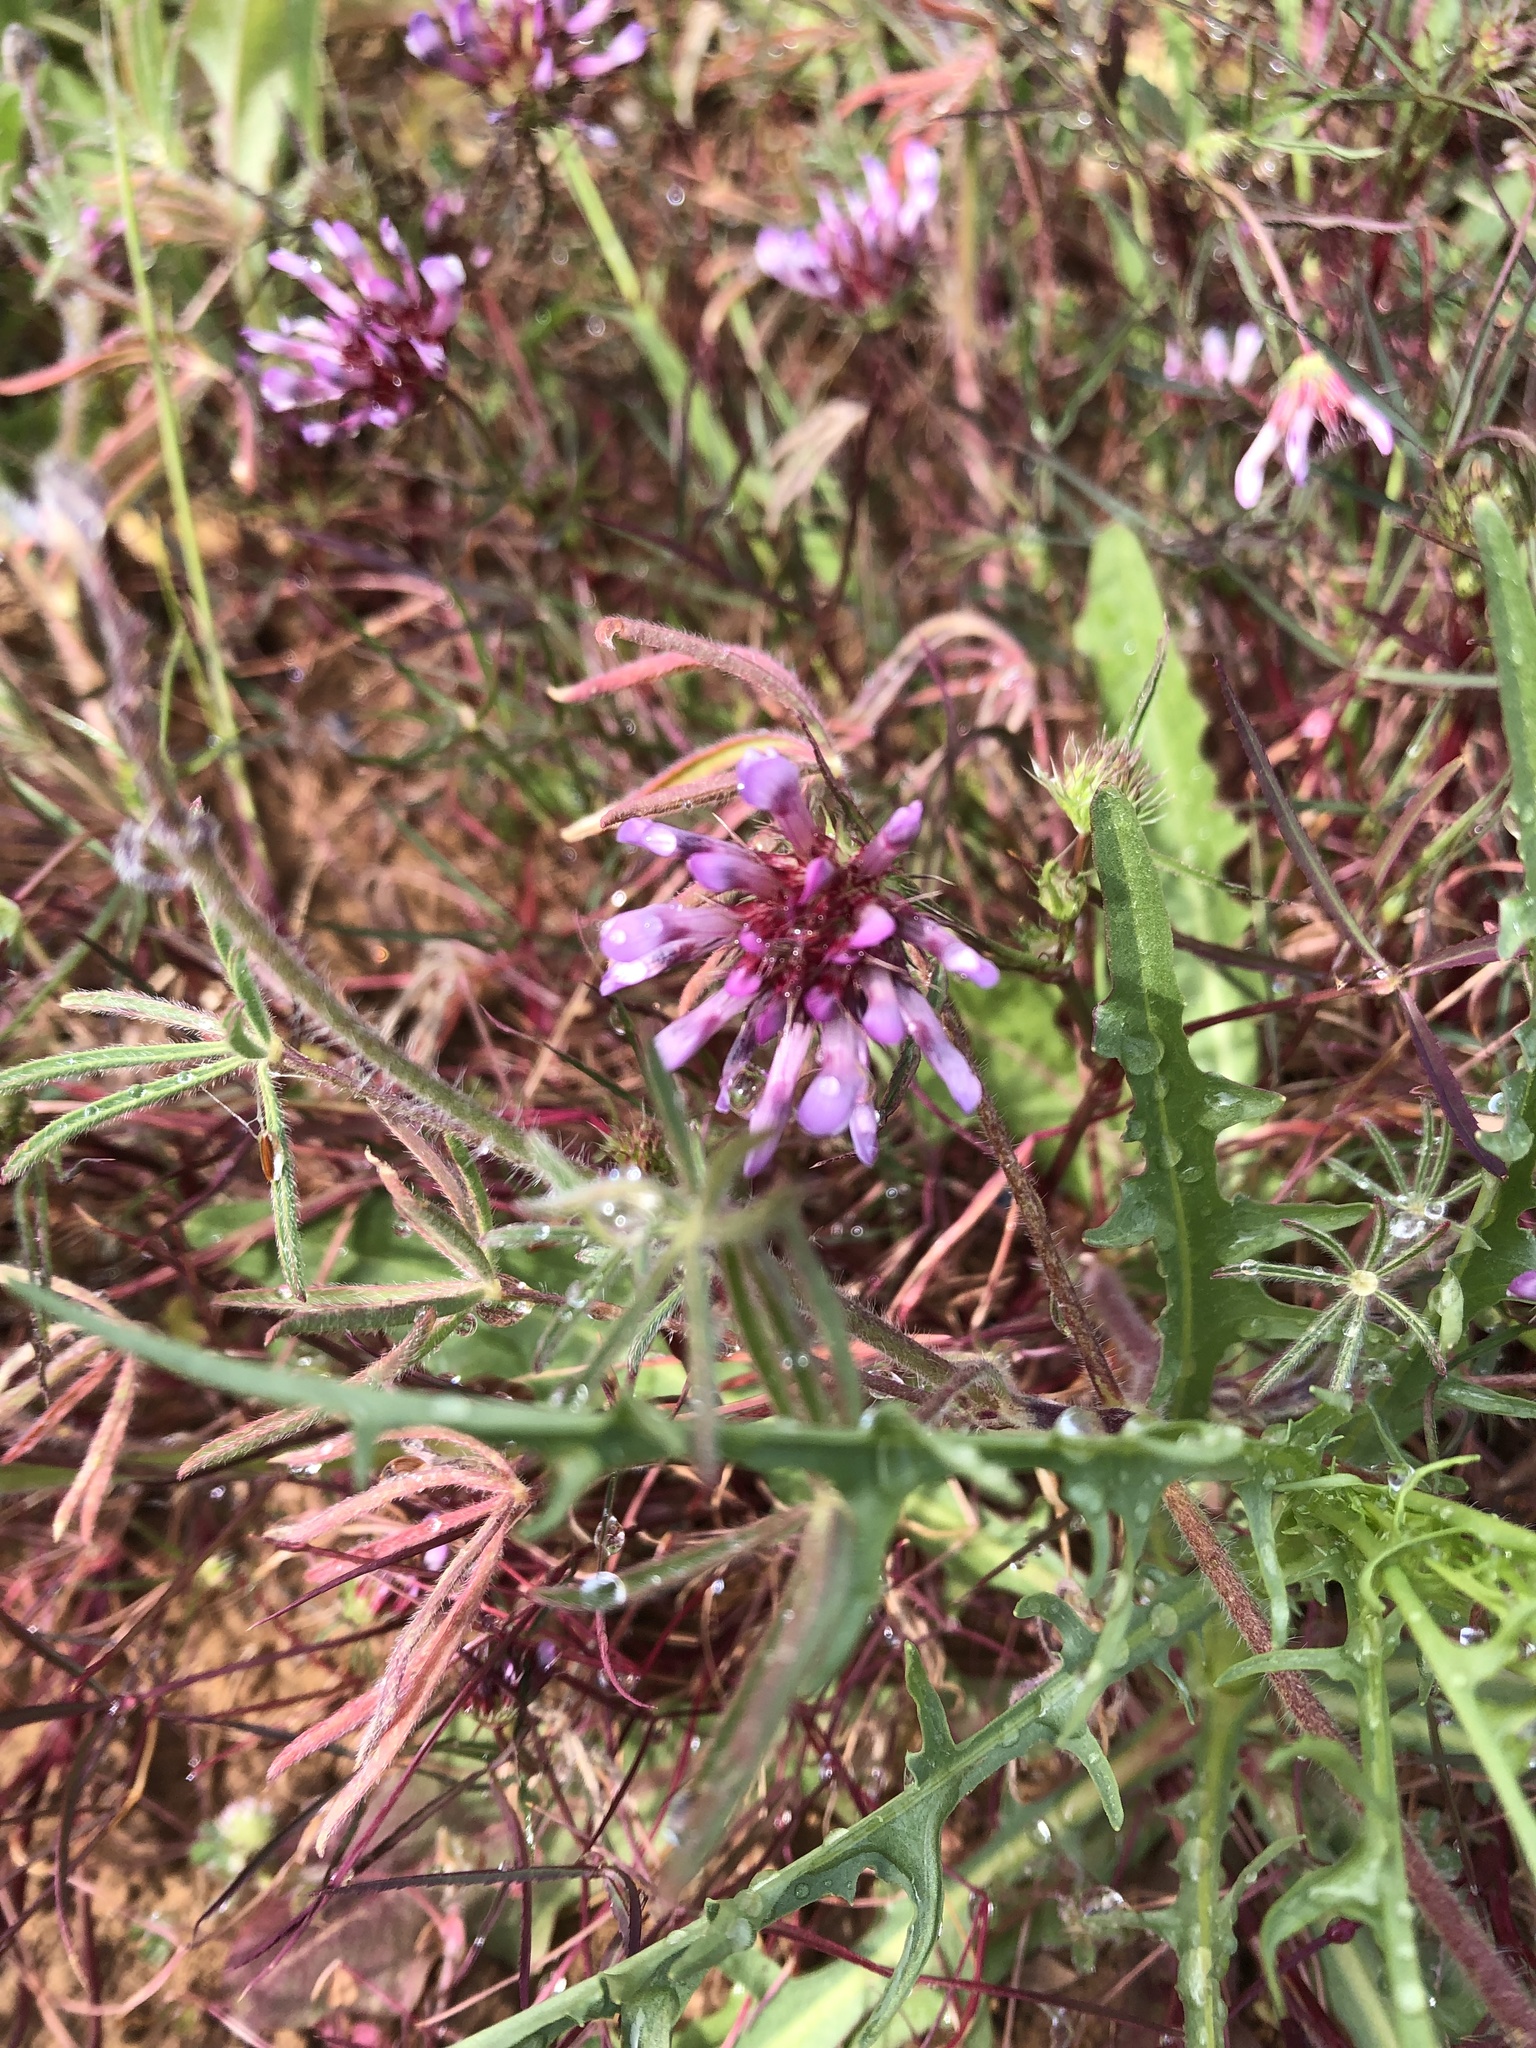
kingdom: Plantae
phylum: Tracheophyta
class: Magnoliopsida
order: Fabales
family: Fabaceae
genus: Trifolium
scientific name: Trifolium willdenovii
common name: Tomcat clover
